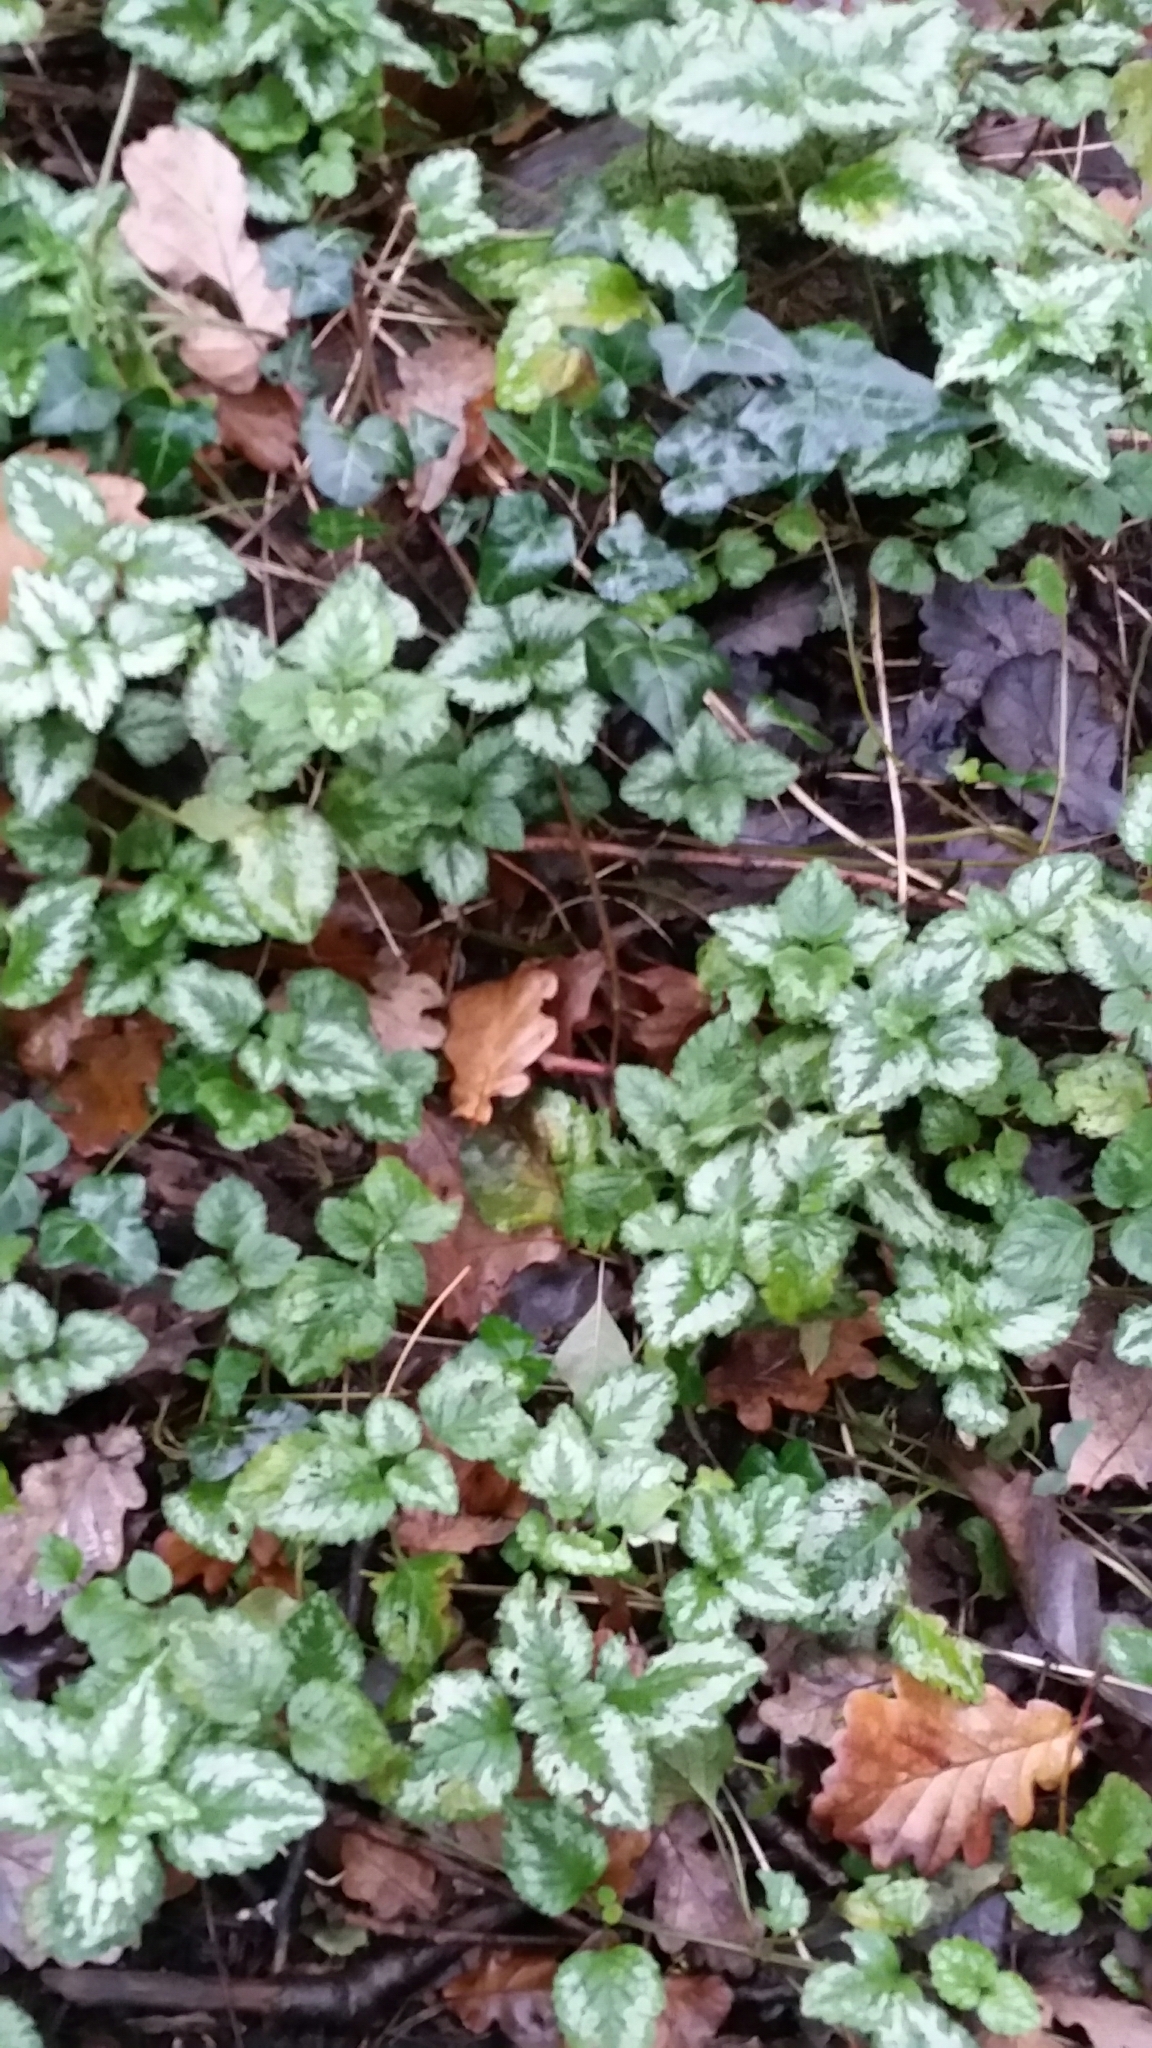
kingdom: Plantae
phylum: Tracheophyta
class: Magnoliopsida
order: Lamiales
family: Lamiaceae
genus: Lamium
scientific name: Lamium galeobdolon
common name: Yellow archangel
